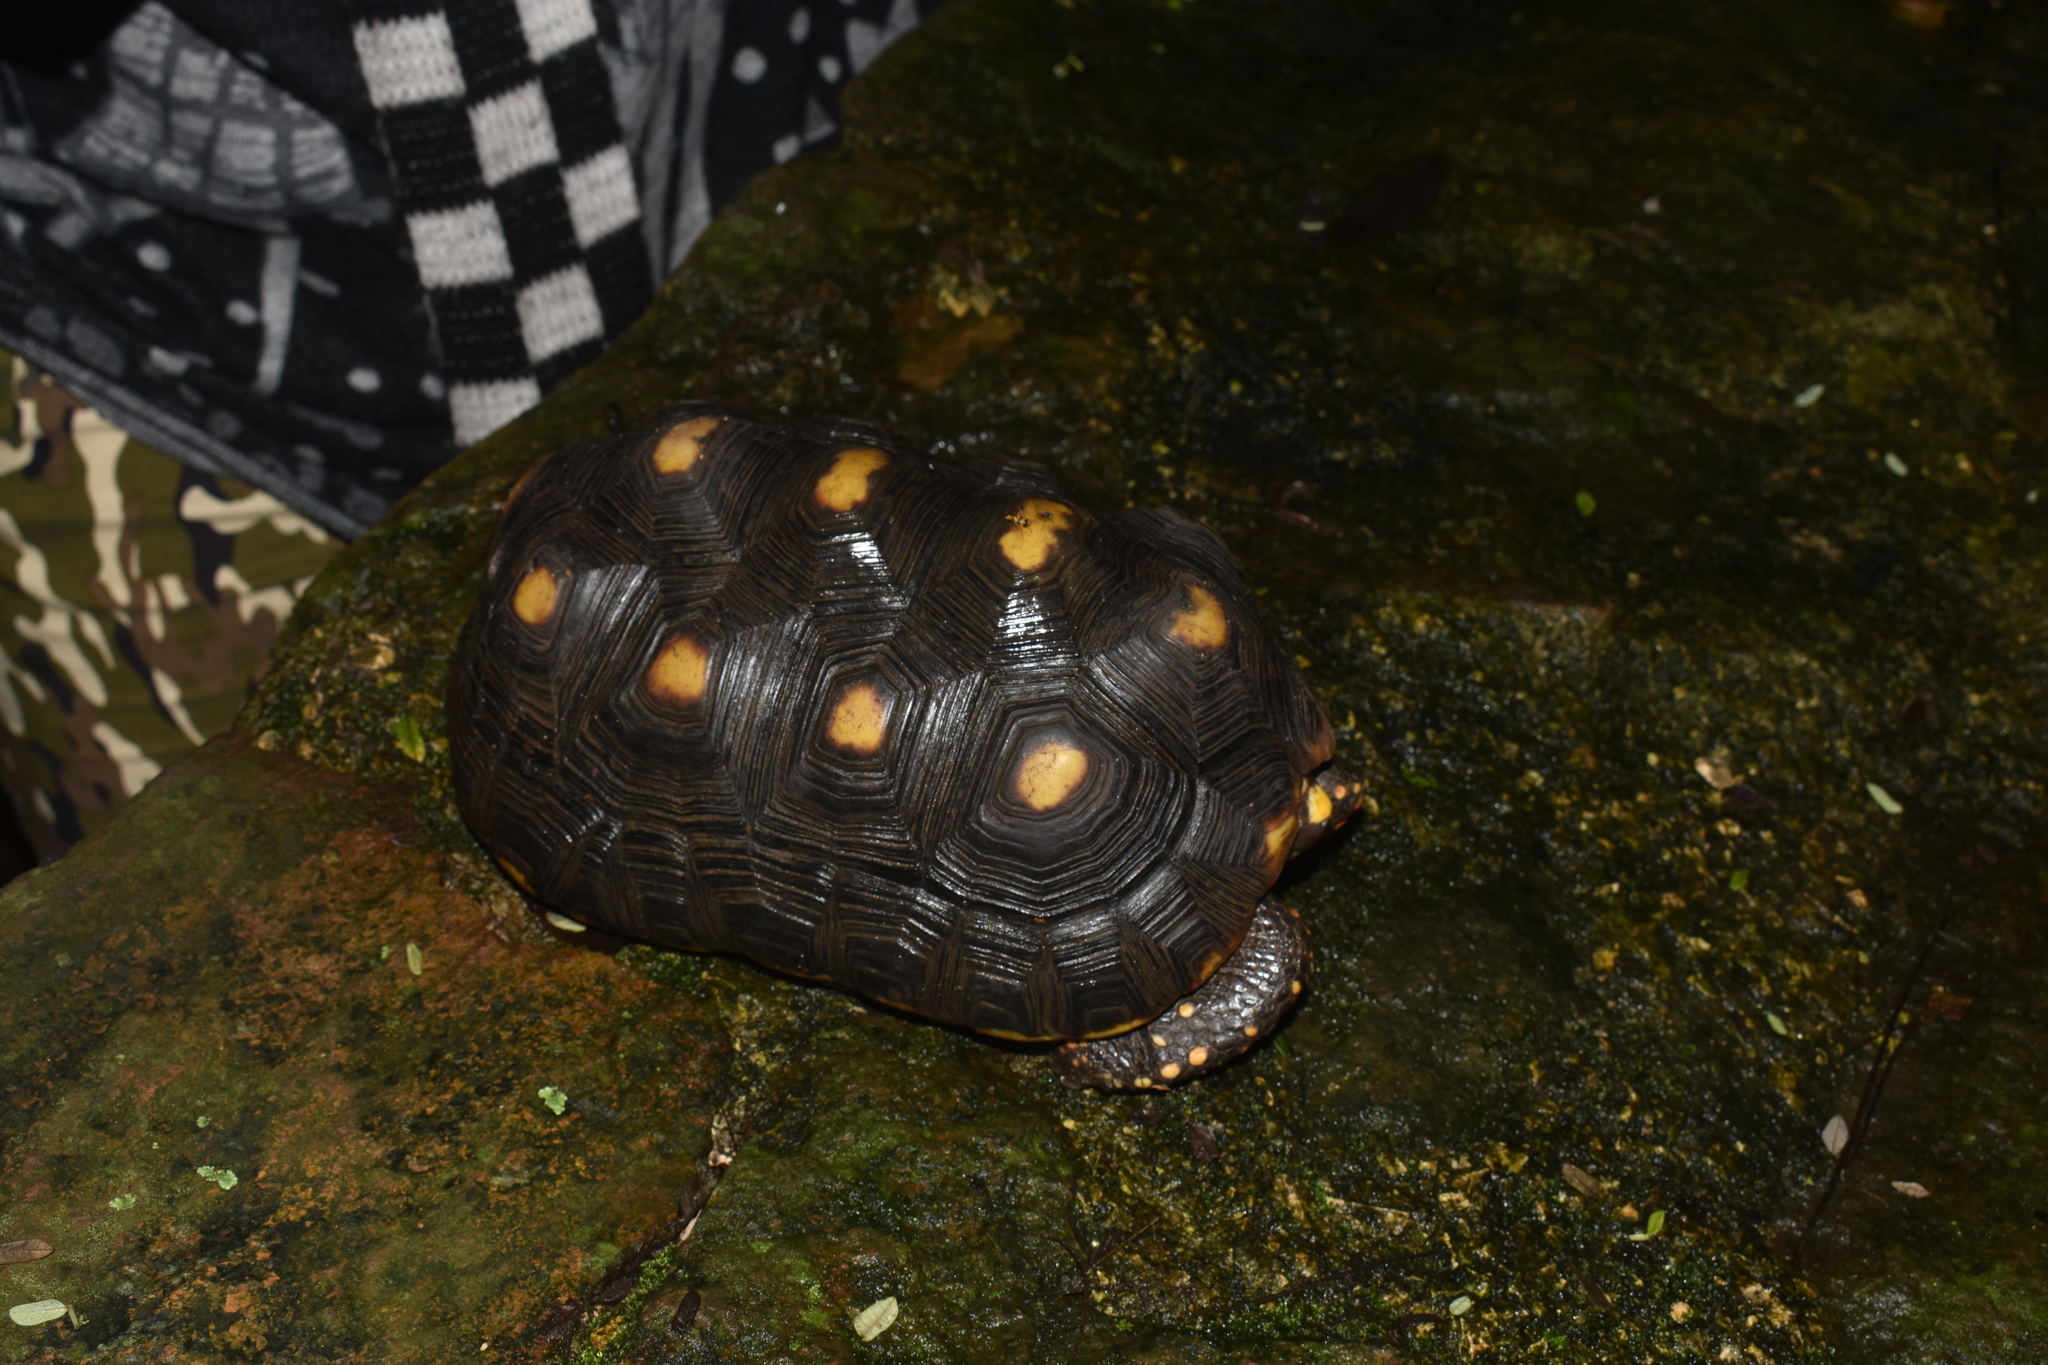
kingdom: Animalia
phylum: Chordata
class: Testudines
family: Testudinidae
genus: Chelonoidis
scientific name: Chelonoidis carbonarius
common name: Red-footed tortoise
